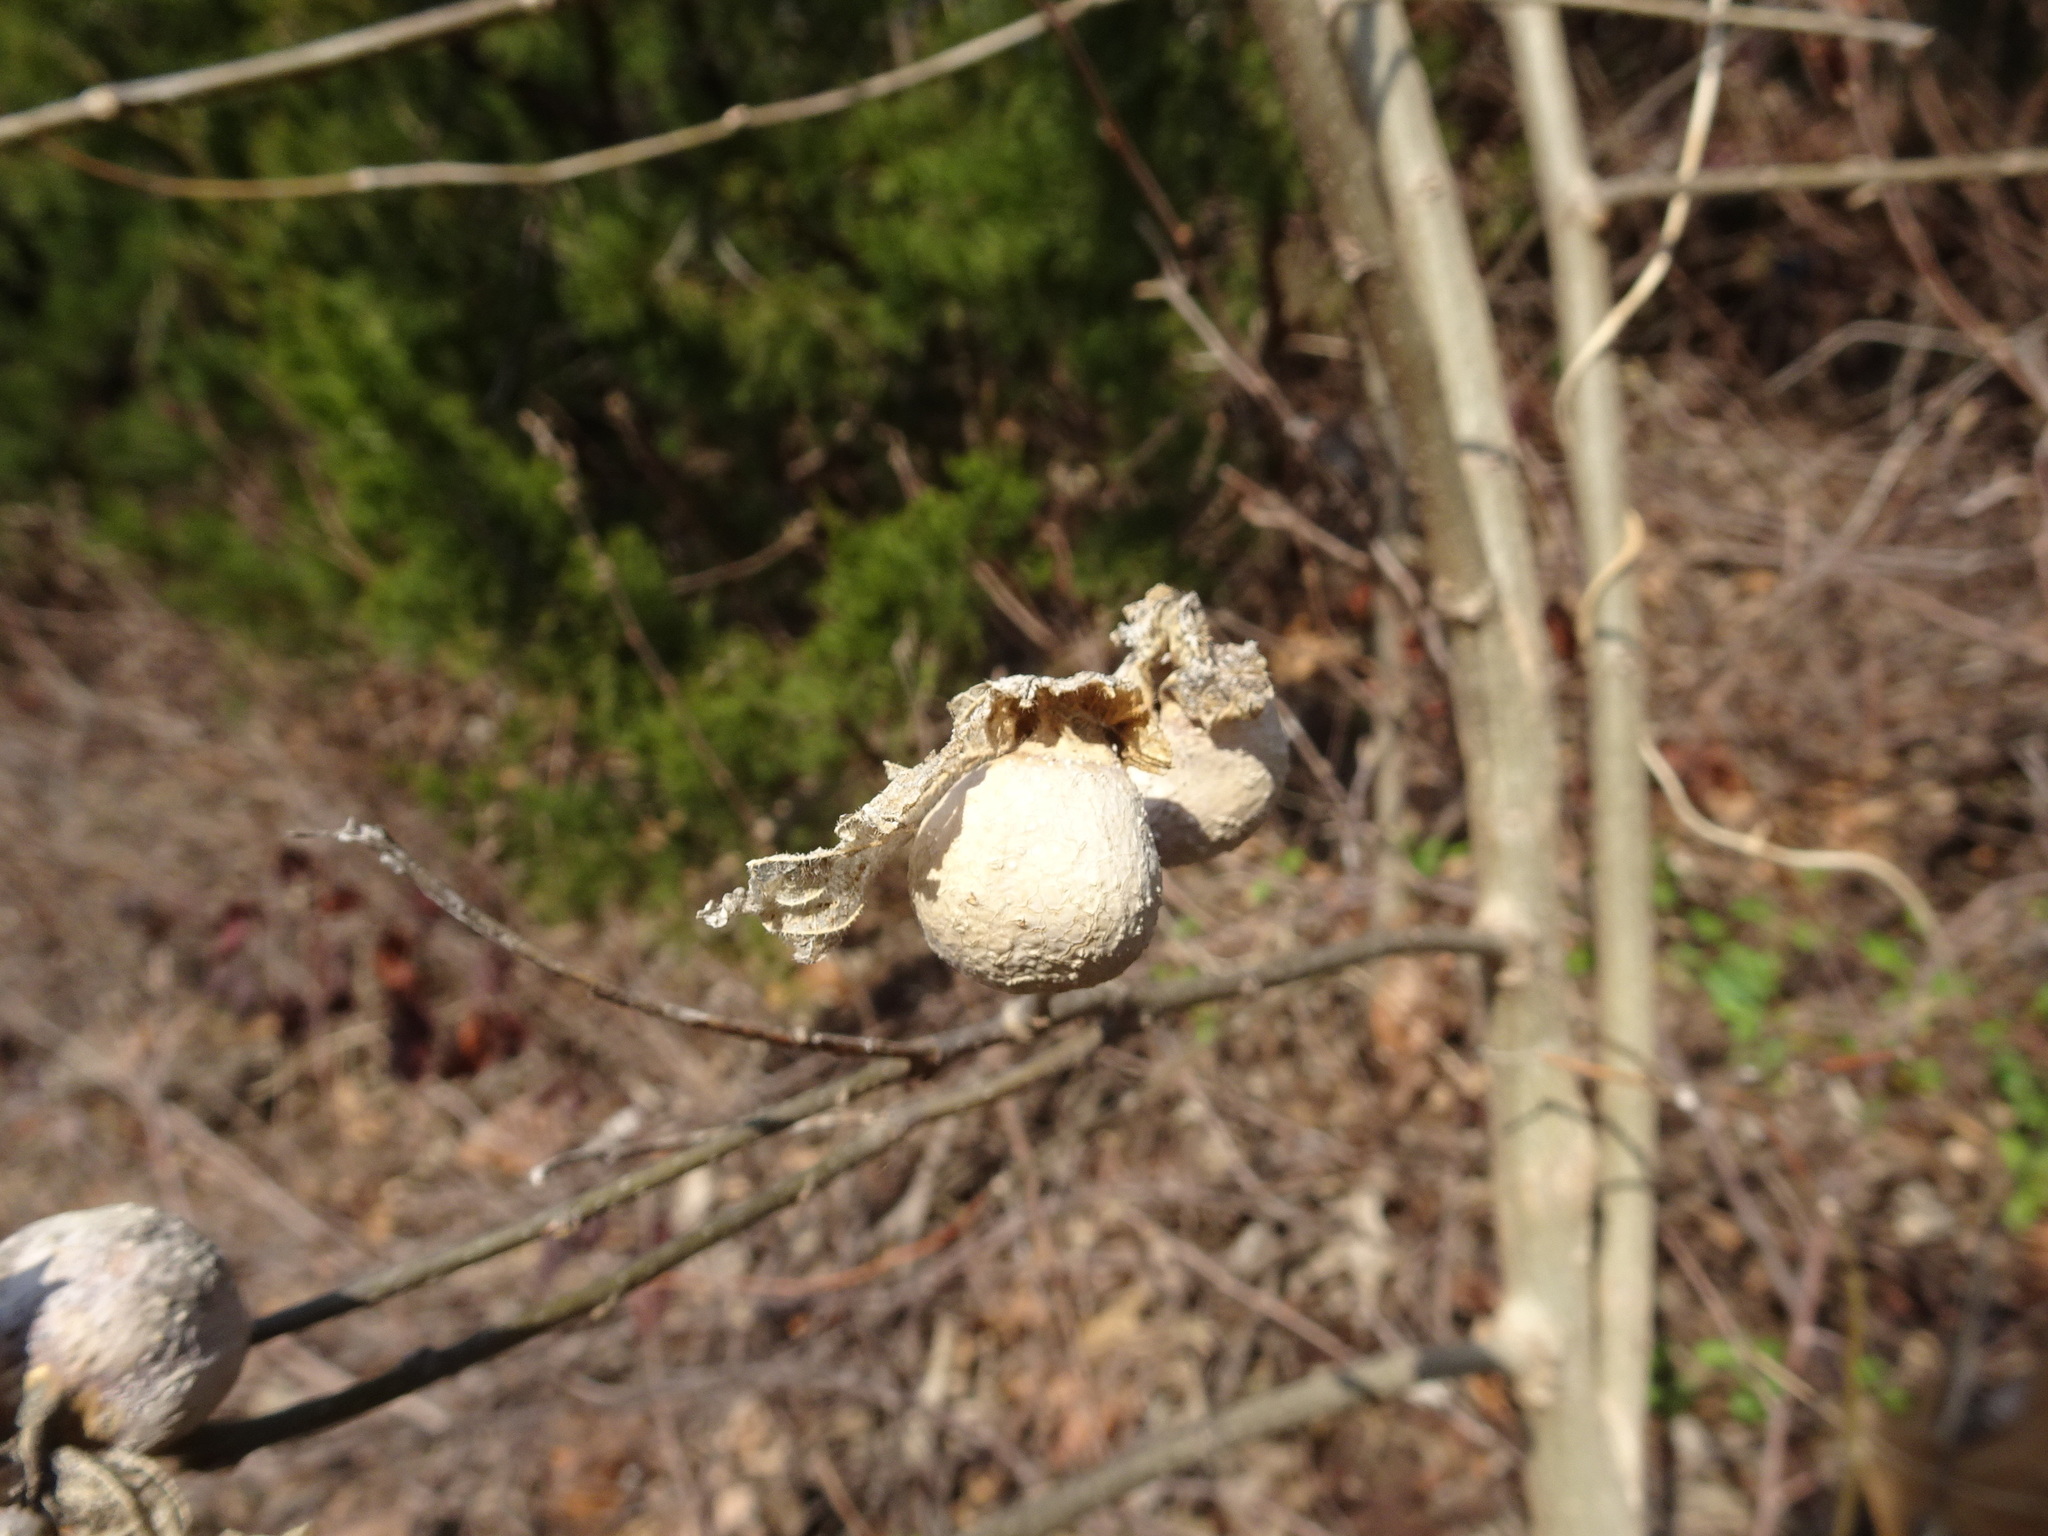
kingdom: Animalia
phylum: Arthropoda
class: Insecta
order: Hemiptera
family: Aphalaridae
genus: Pachypsylla
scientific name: Pachypsylla venusta
